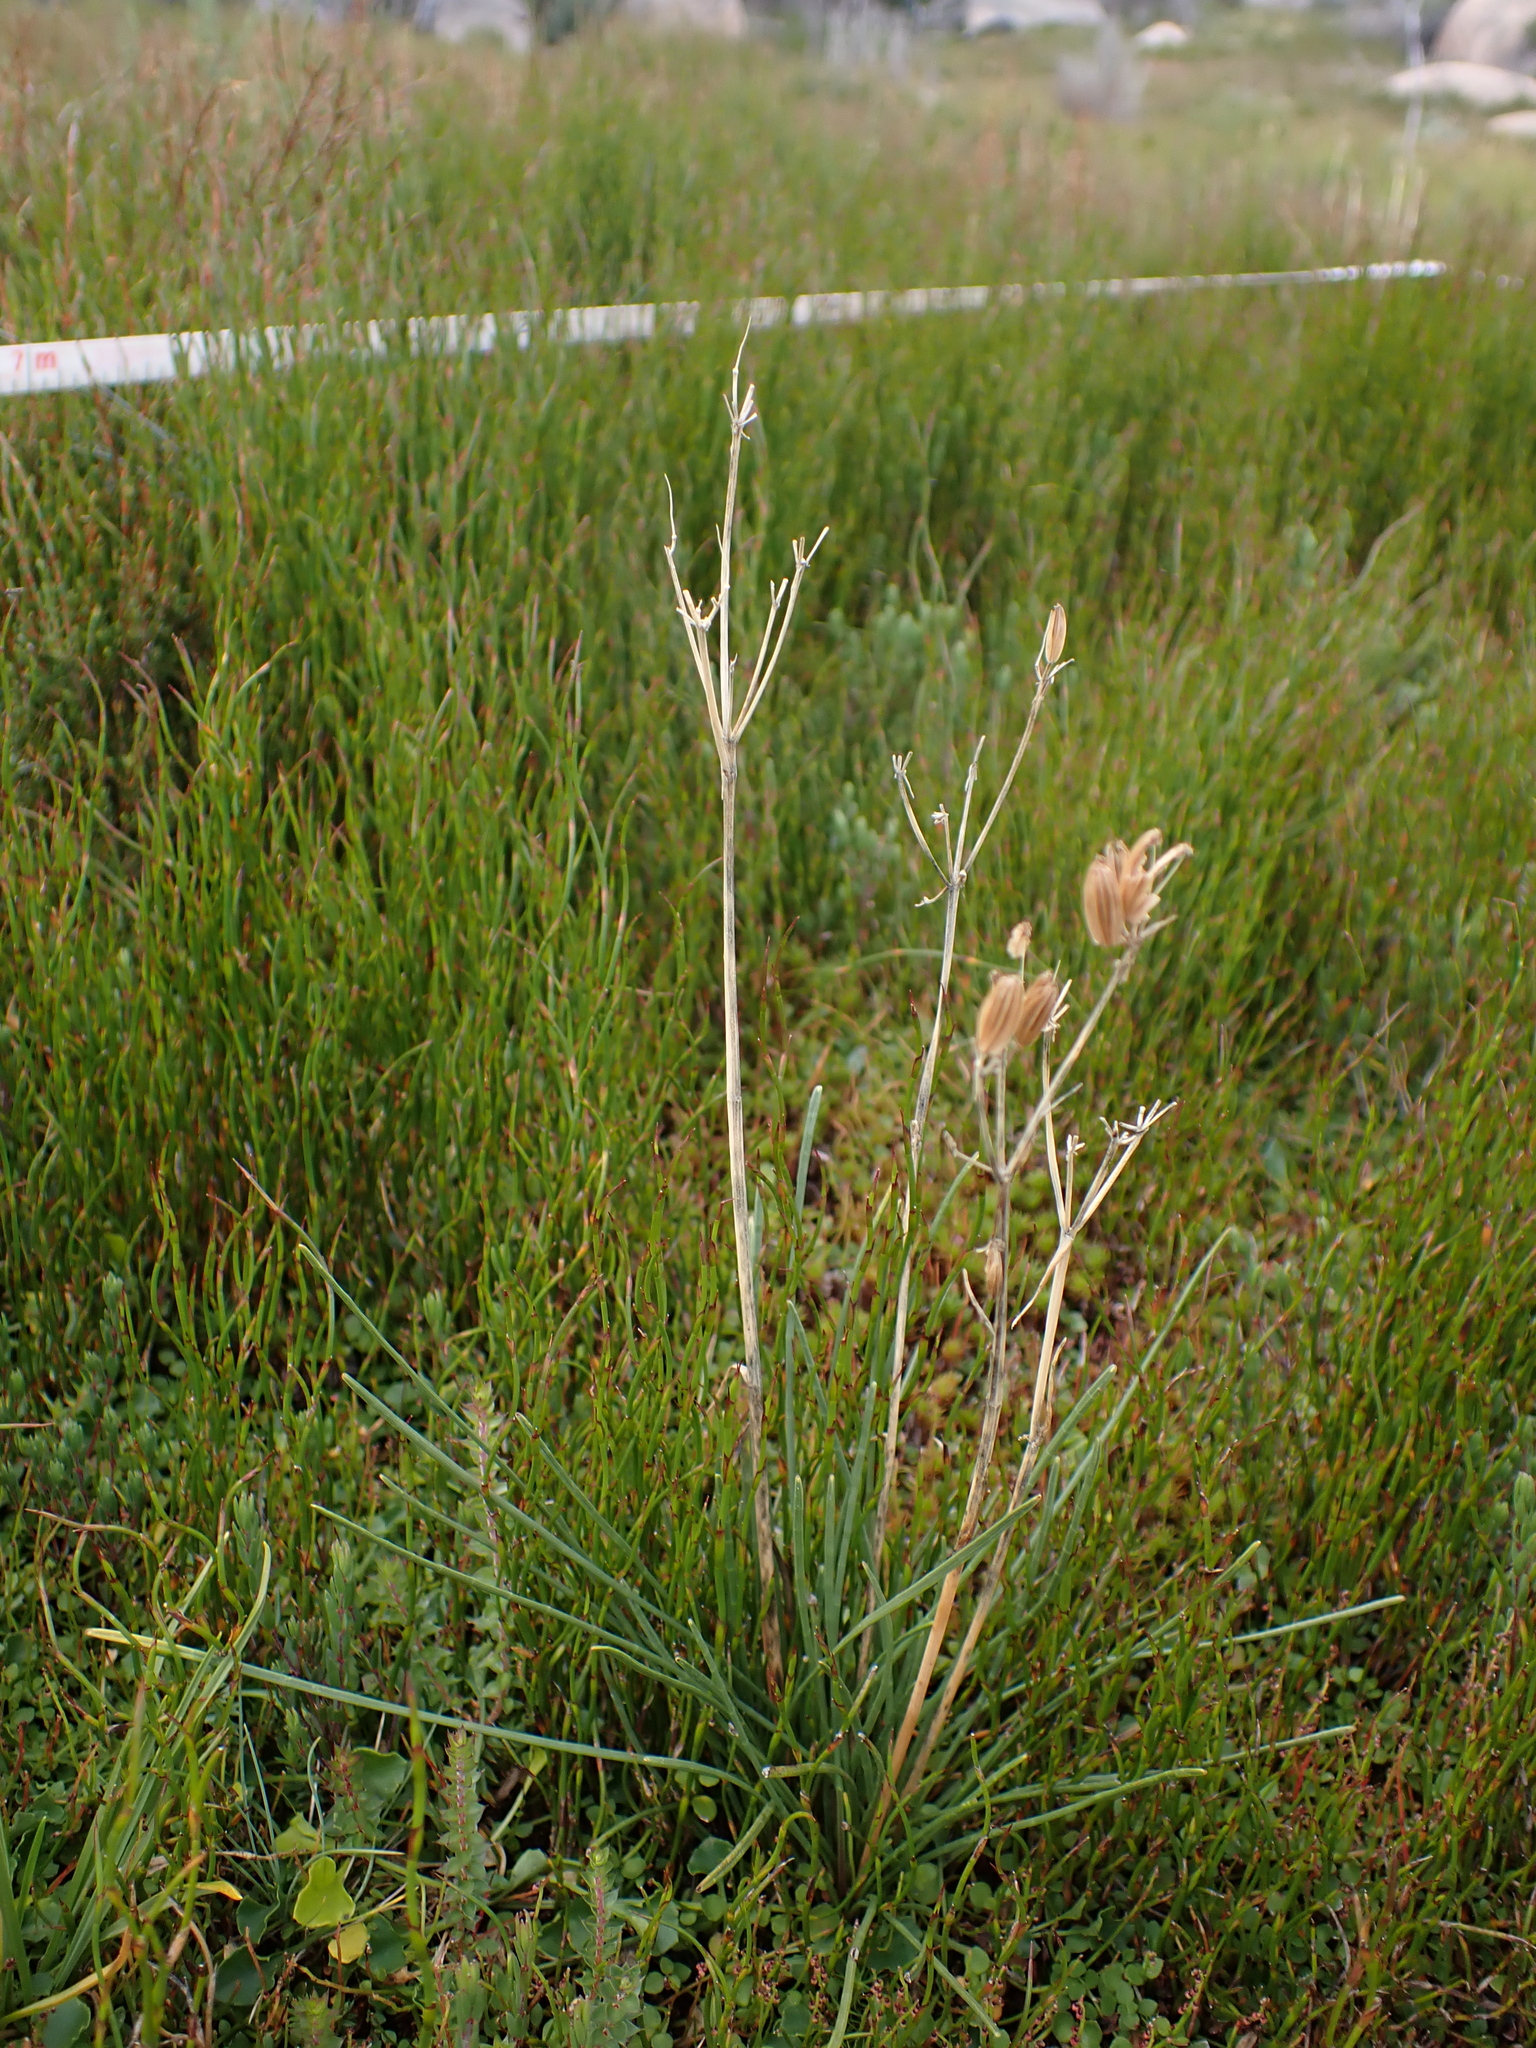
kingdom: Plantae
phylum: Tracheophyta
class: Magnoliopsida
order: Apiales
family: Apiaceae
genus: Aciphylla
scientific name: Aciphylla simplicifolia
